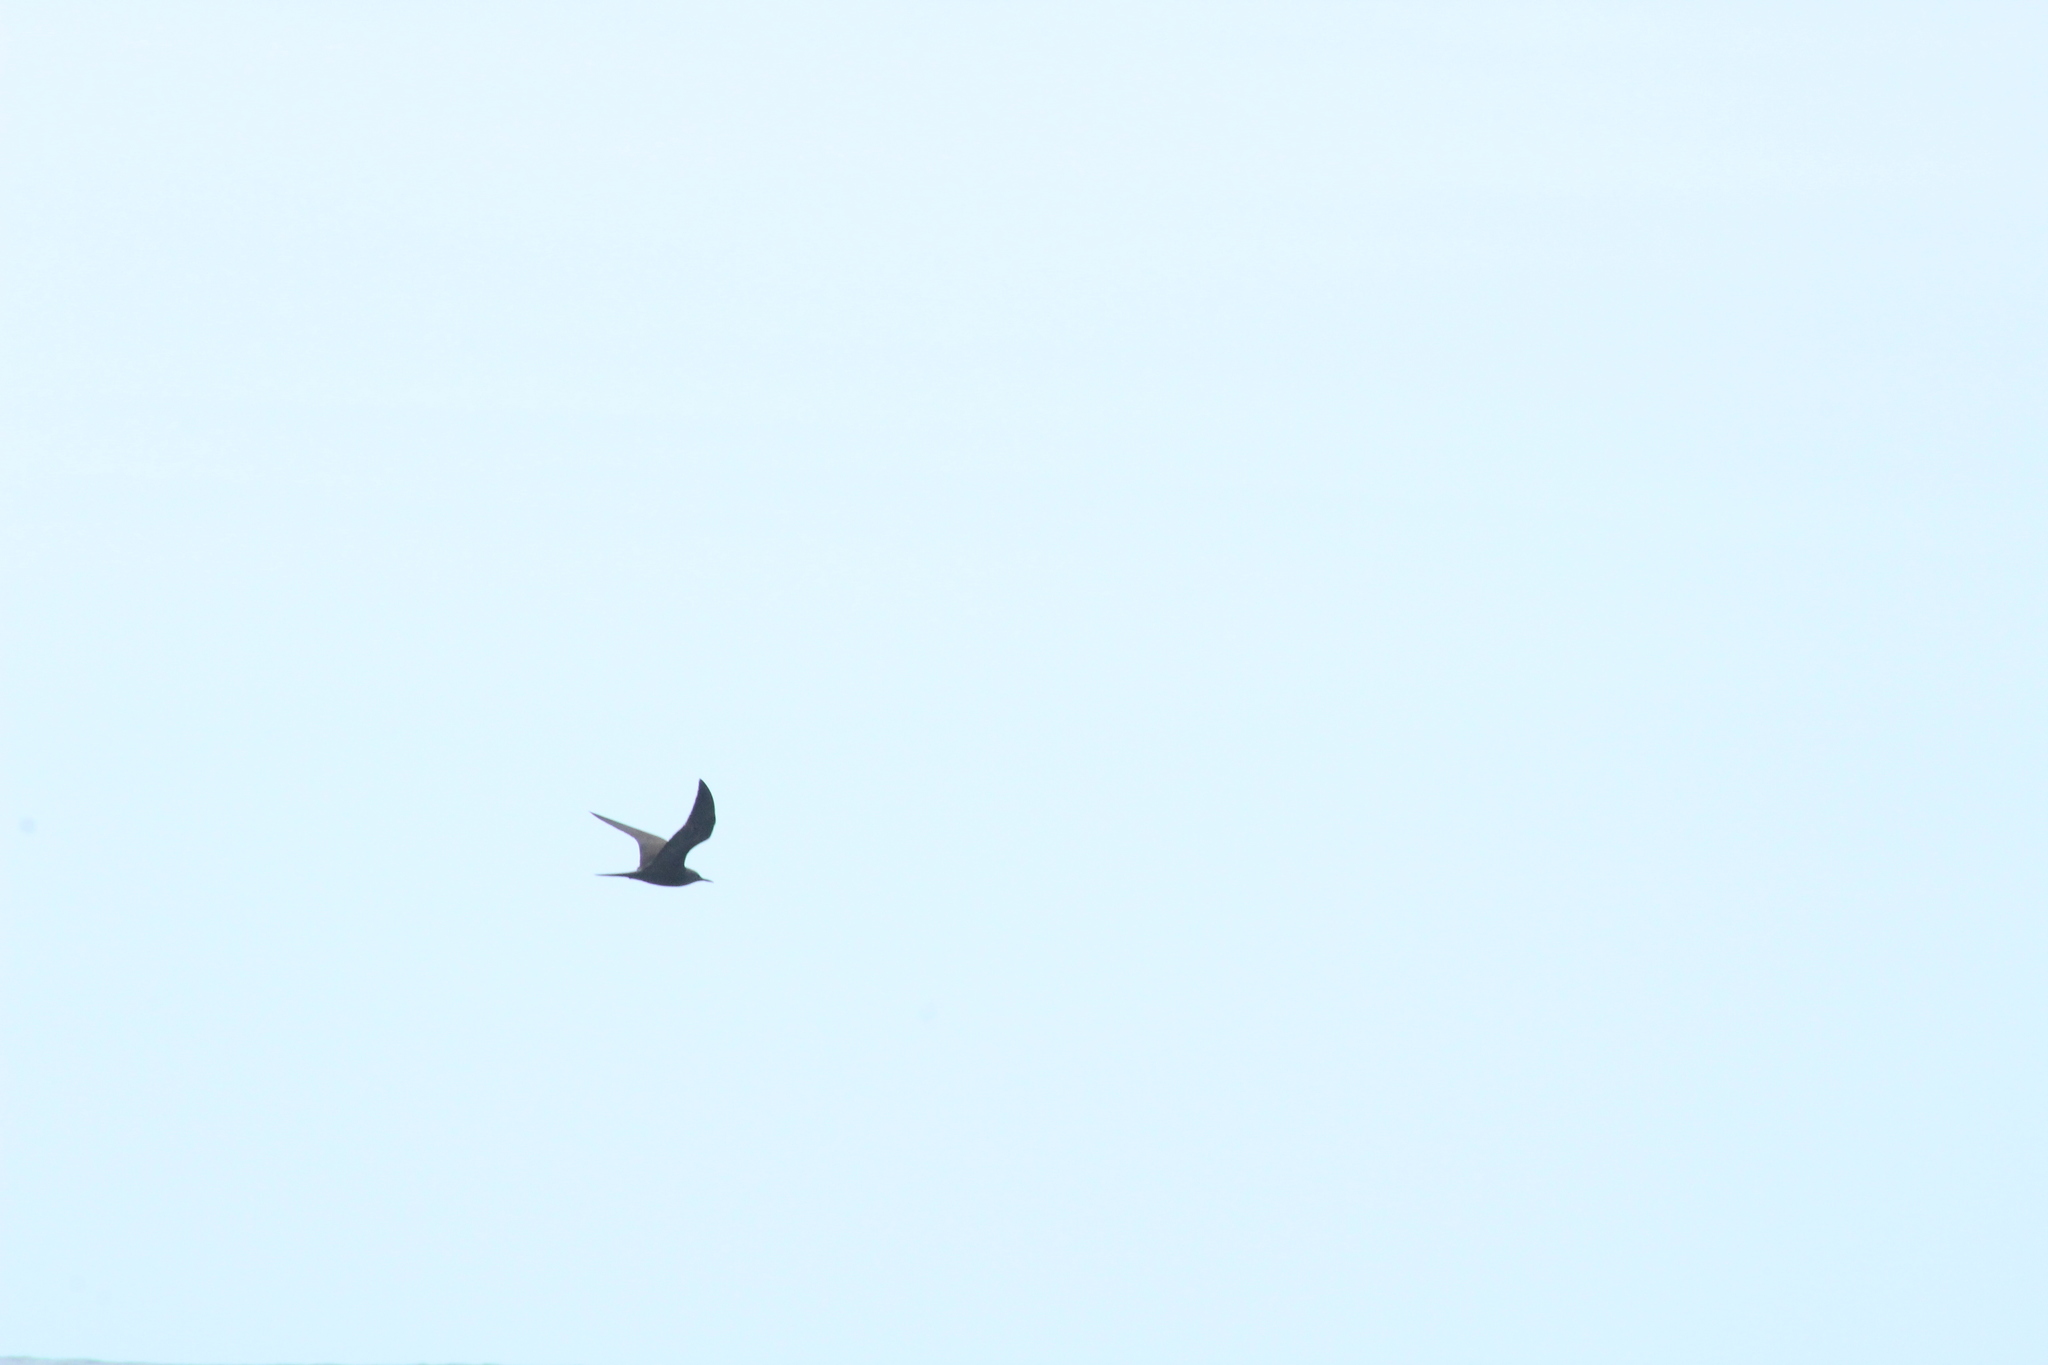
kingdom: Animalia
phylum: Chordata
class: Aves
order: Charadriiformes
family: Laridae
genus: Anous
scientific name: Anous stolidus
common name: Brown noddy
